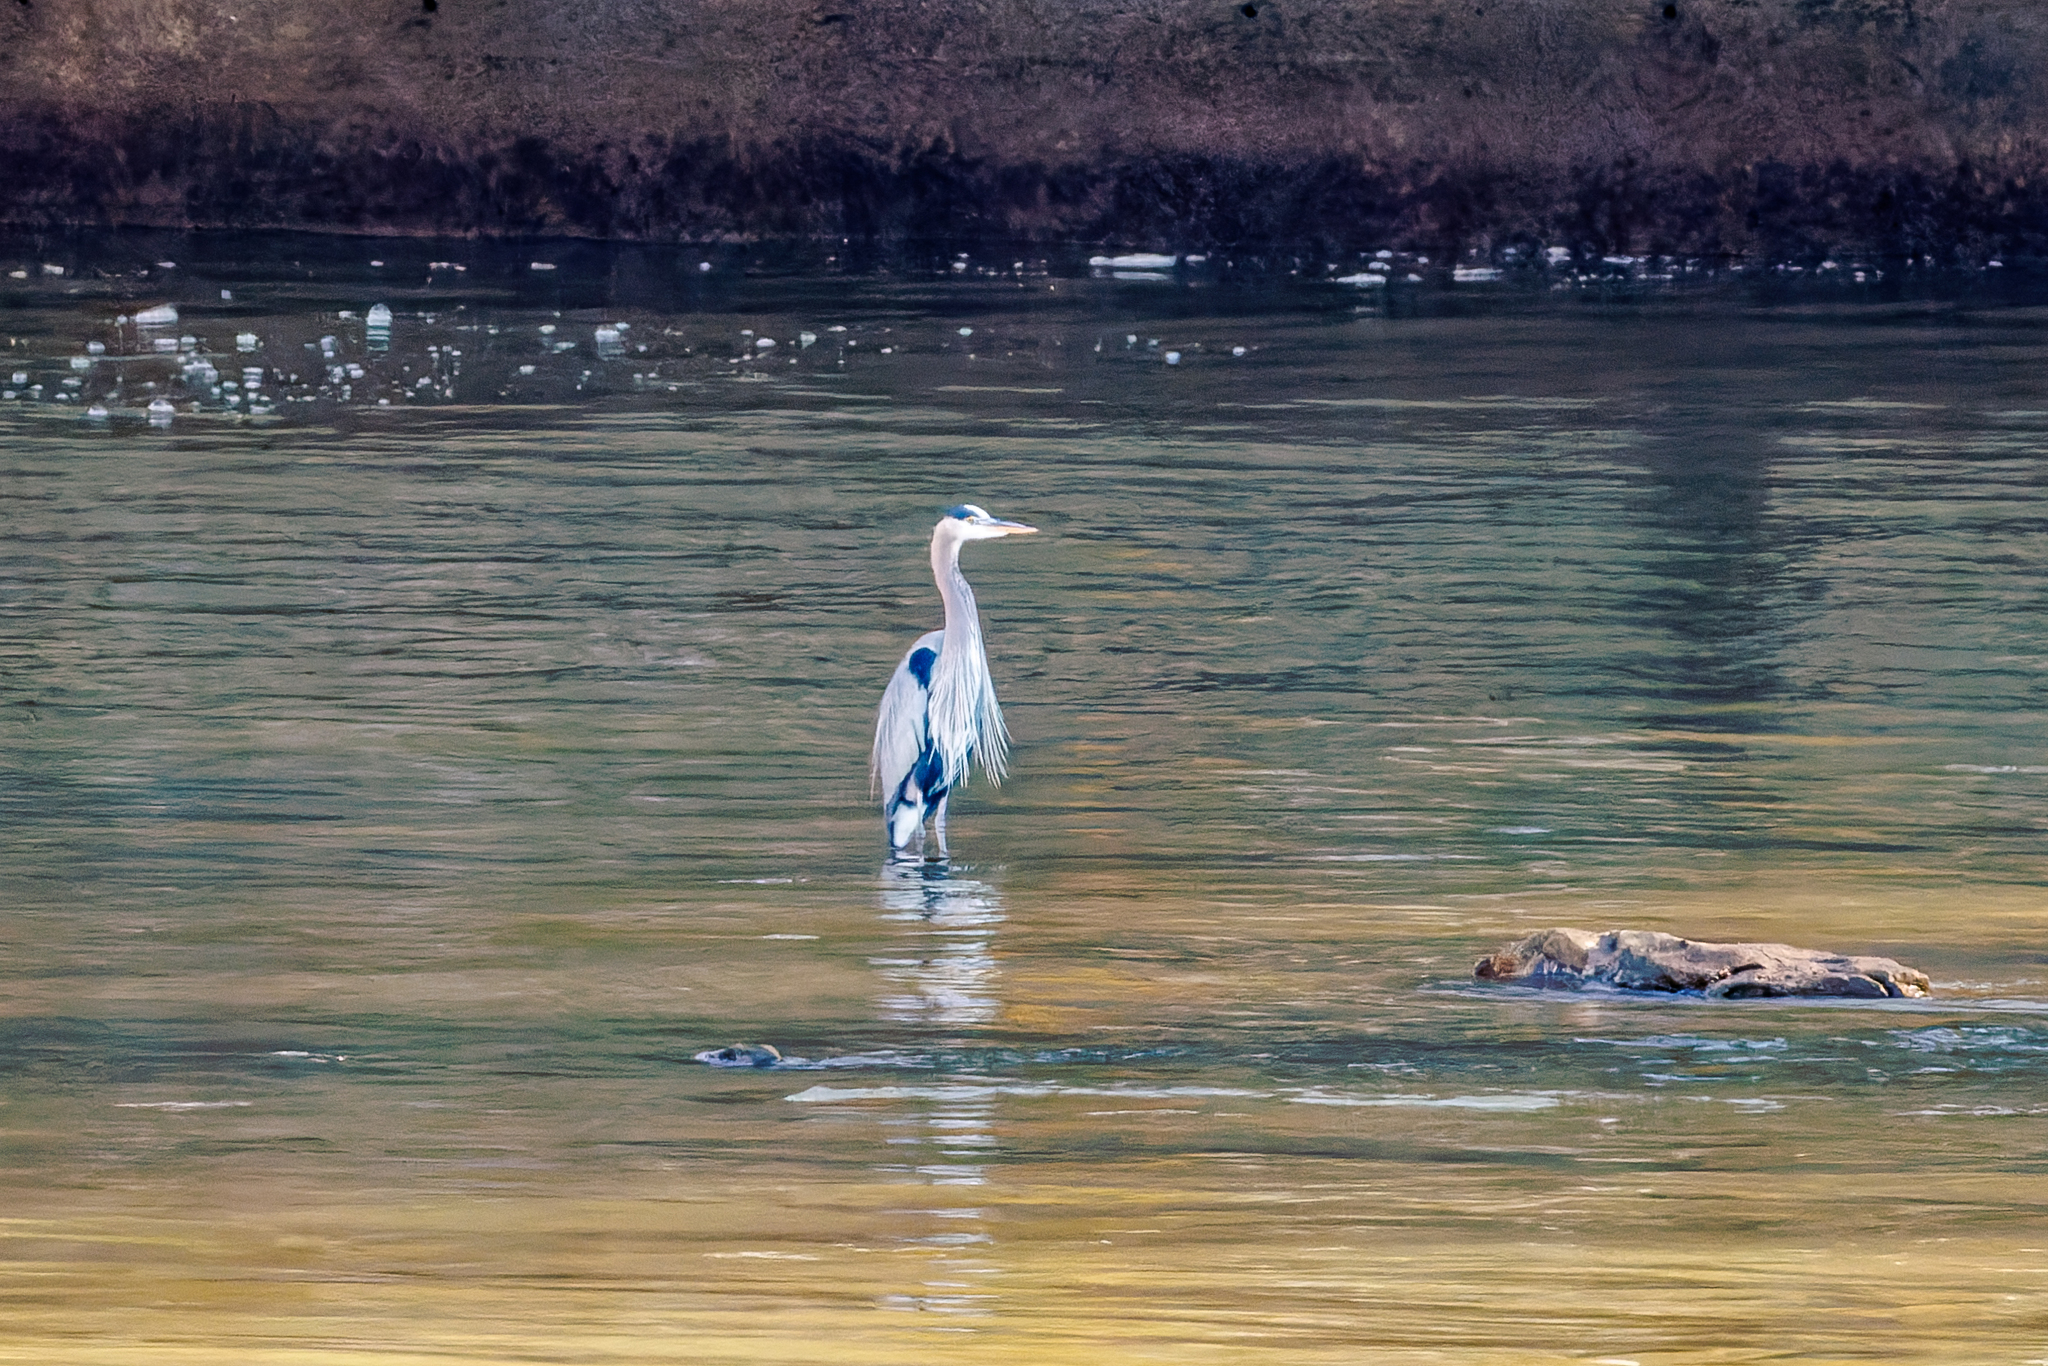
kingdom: Animalia
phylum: Chordata
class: Aves
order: Pelecaniformes
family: Ardeidae
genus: Ardea
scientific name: Ardea herodias
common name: Great blue heron
